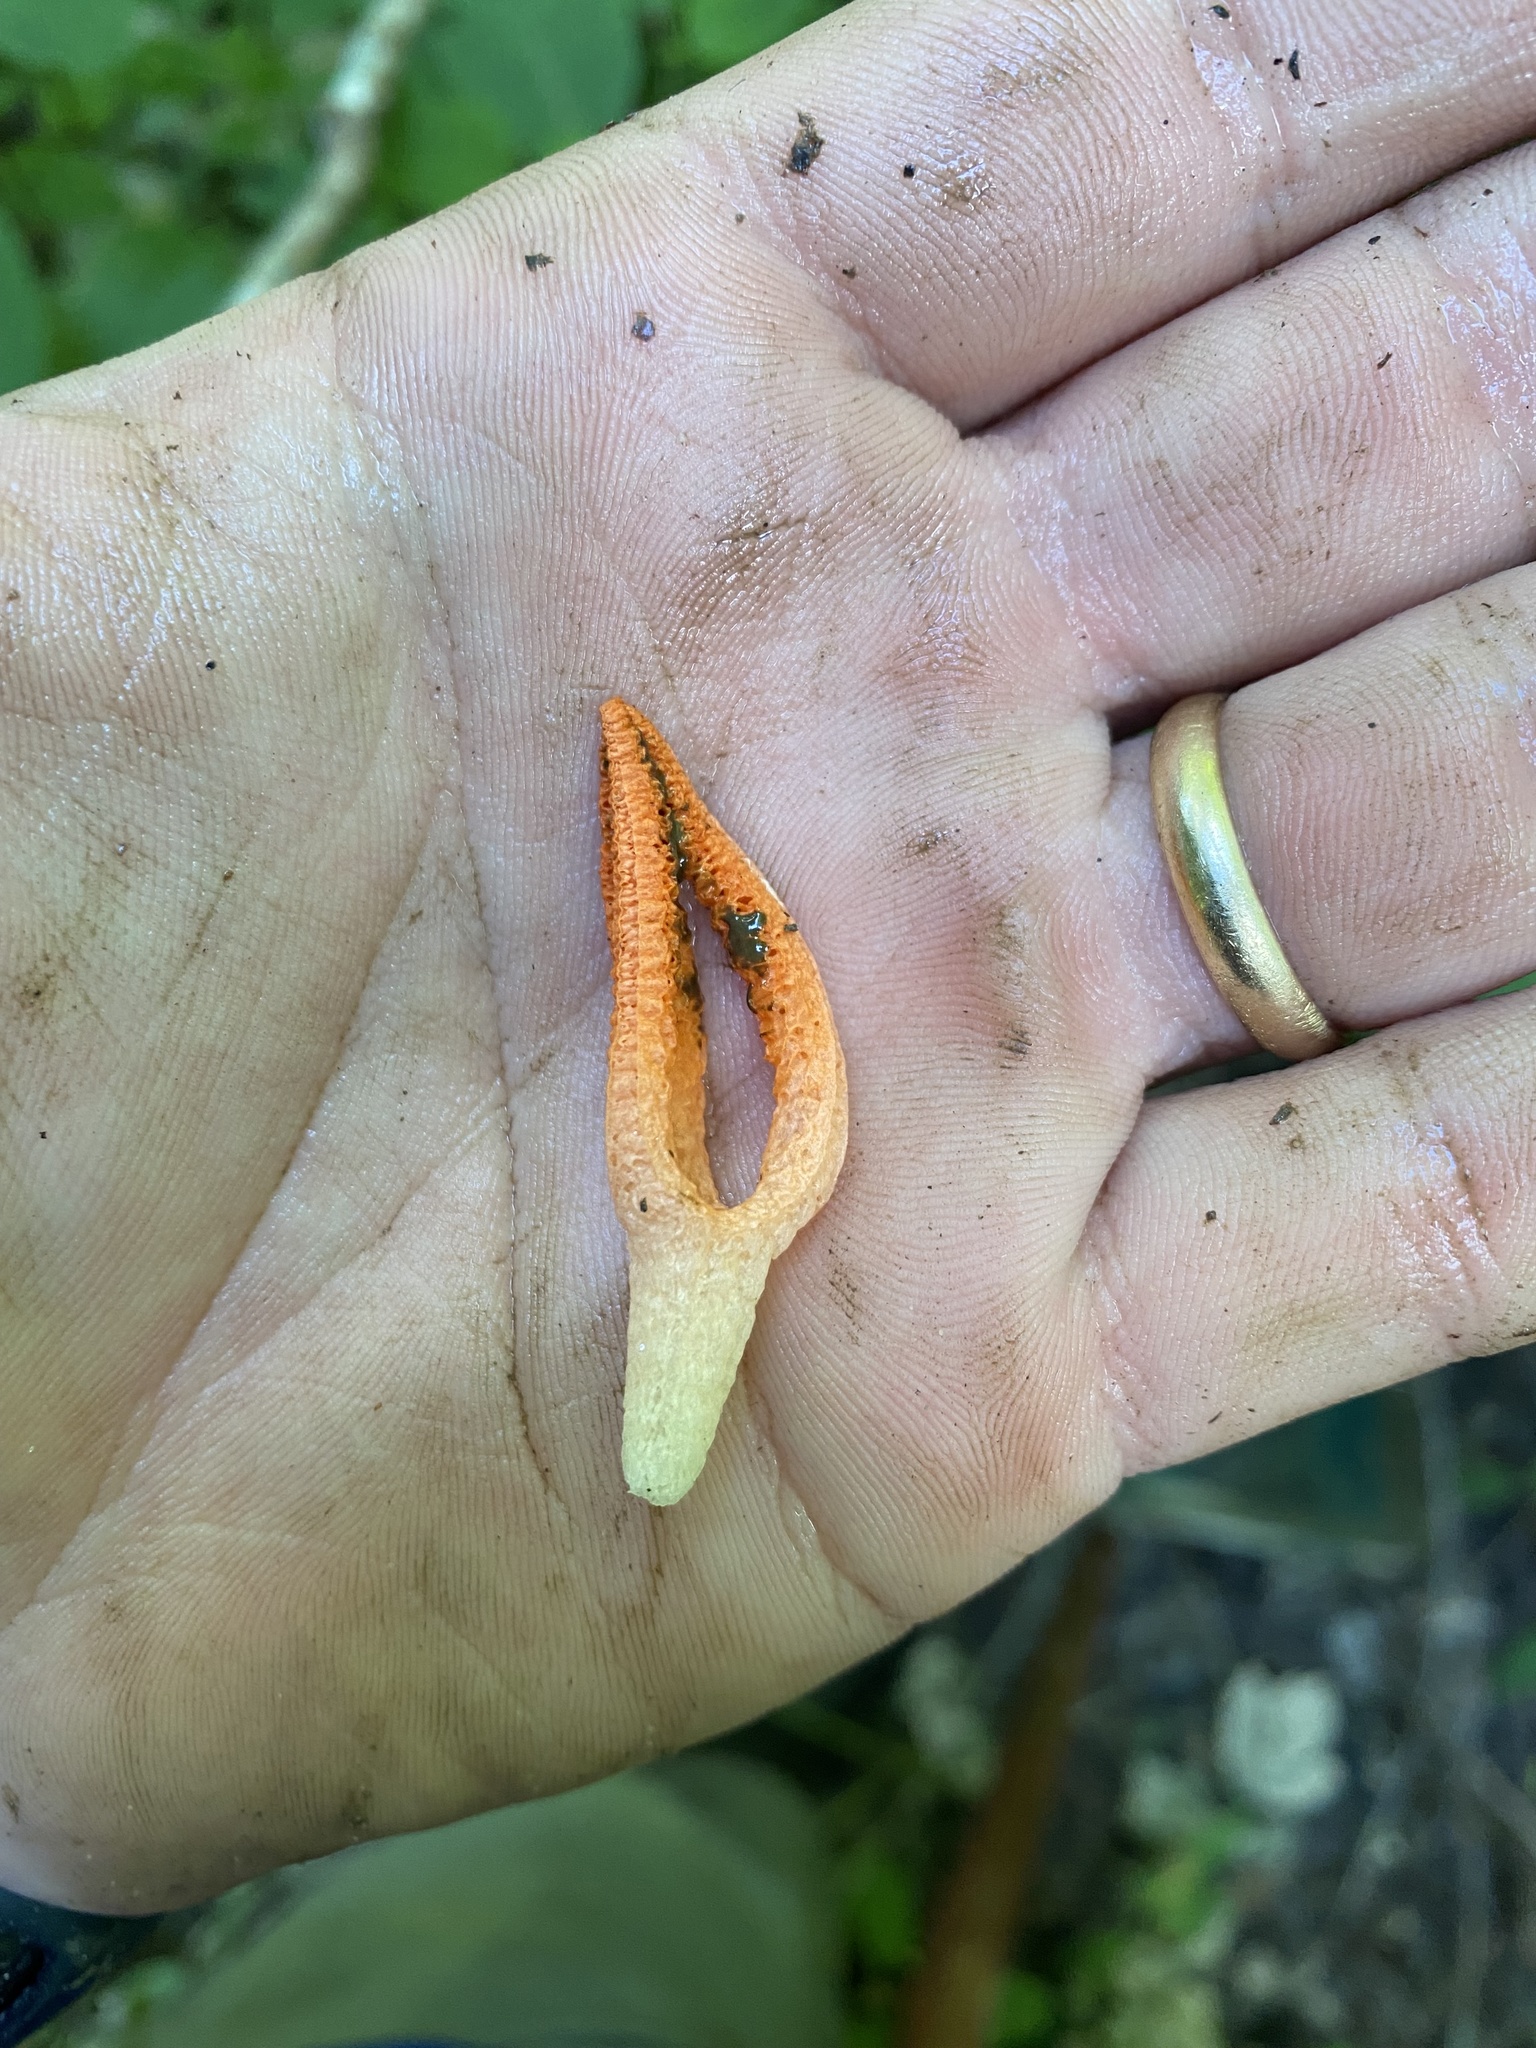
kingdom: Fungi
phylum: Basidiomycota
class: Agaricomycetes
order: Phallales
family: Phallaceae
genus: Pseudocolus
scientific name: Pseudocolus fusiformis
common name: Stinky squid
